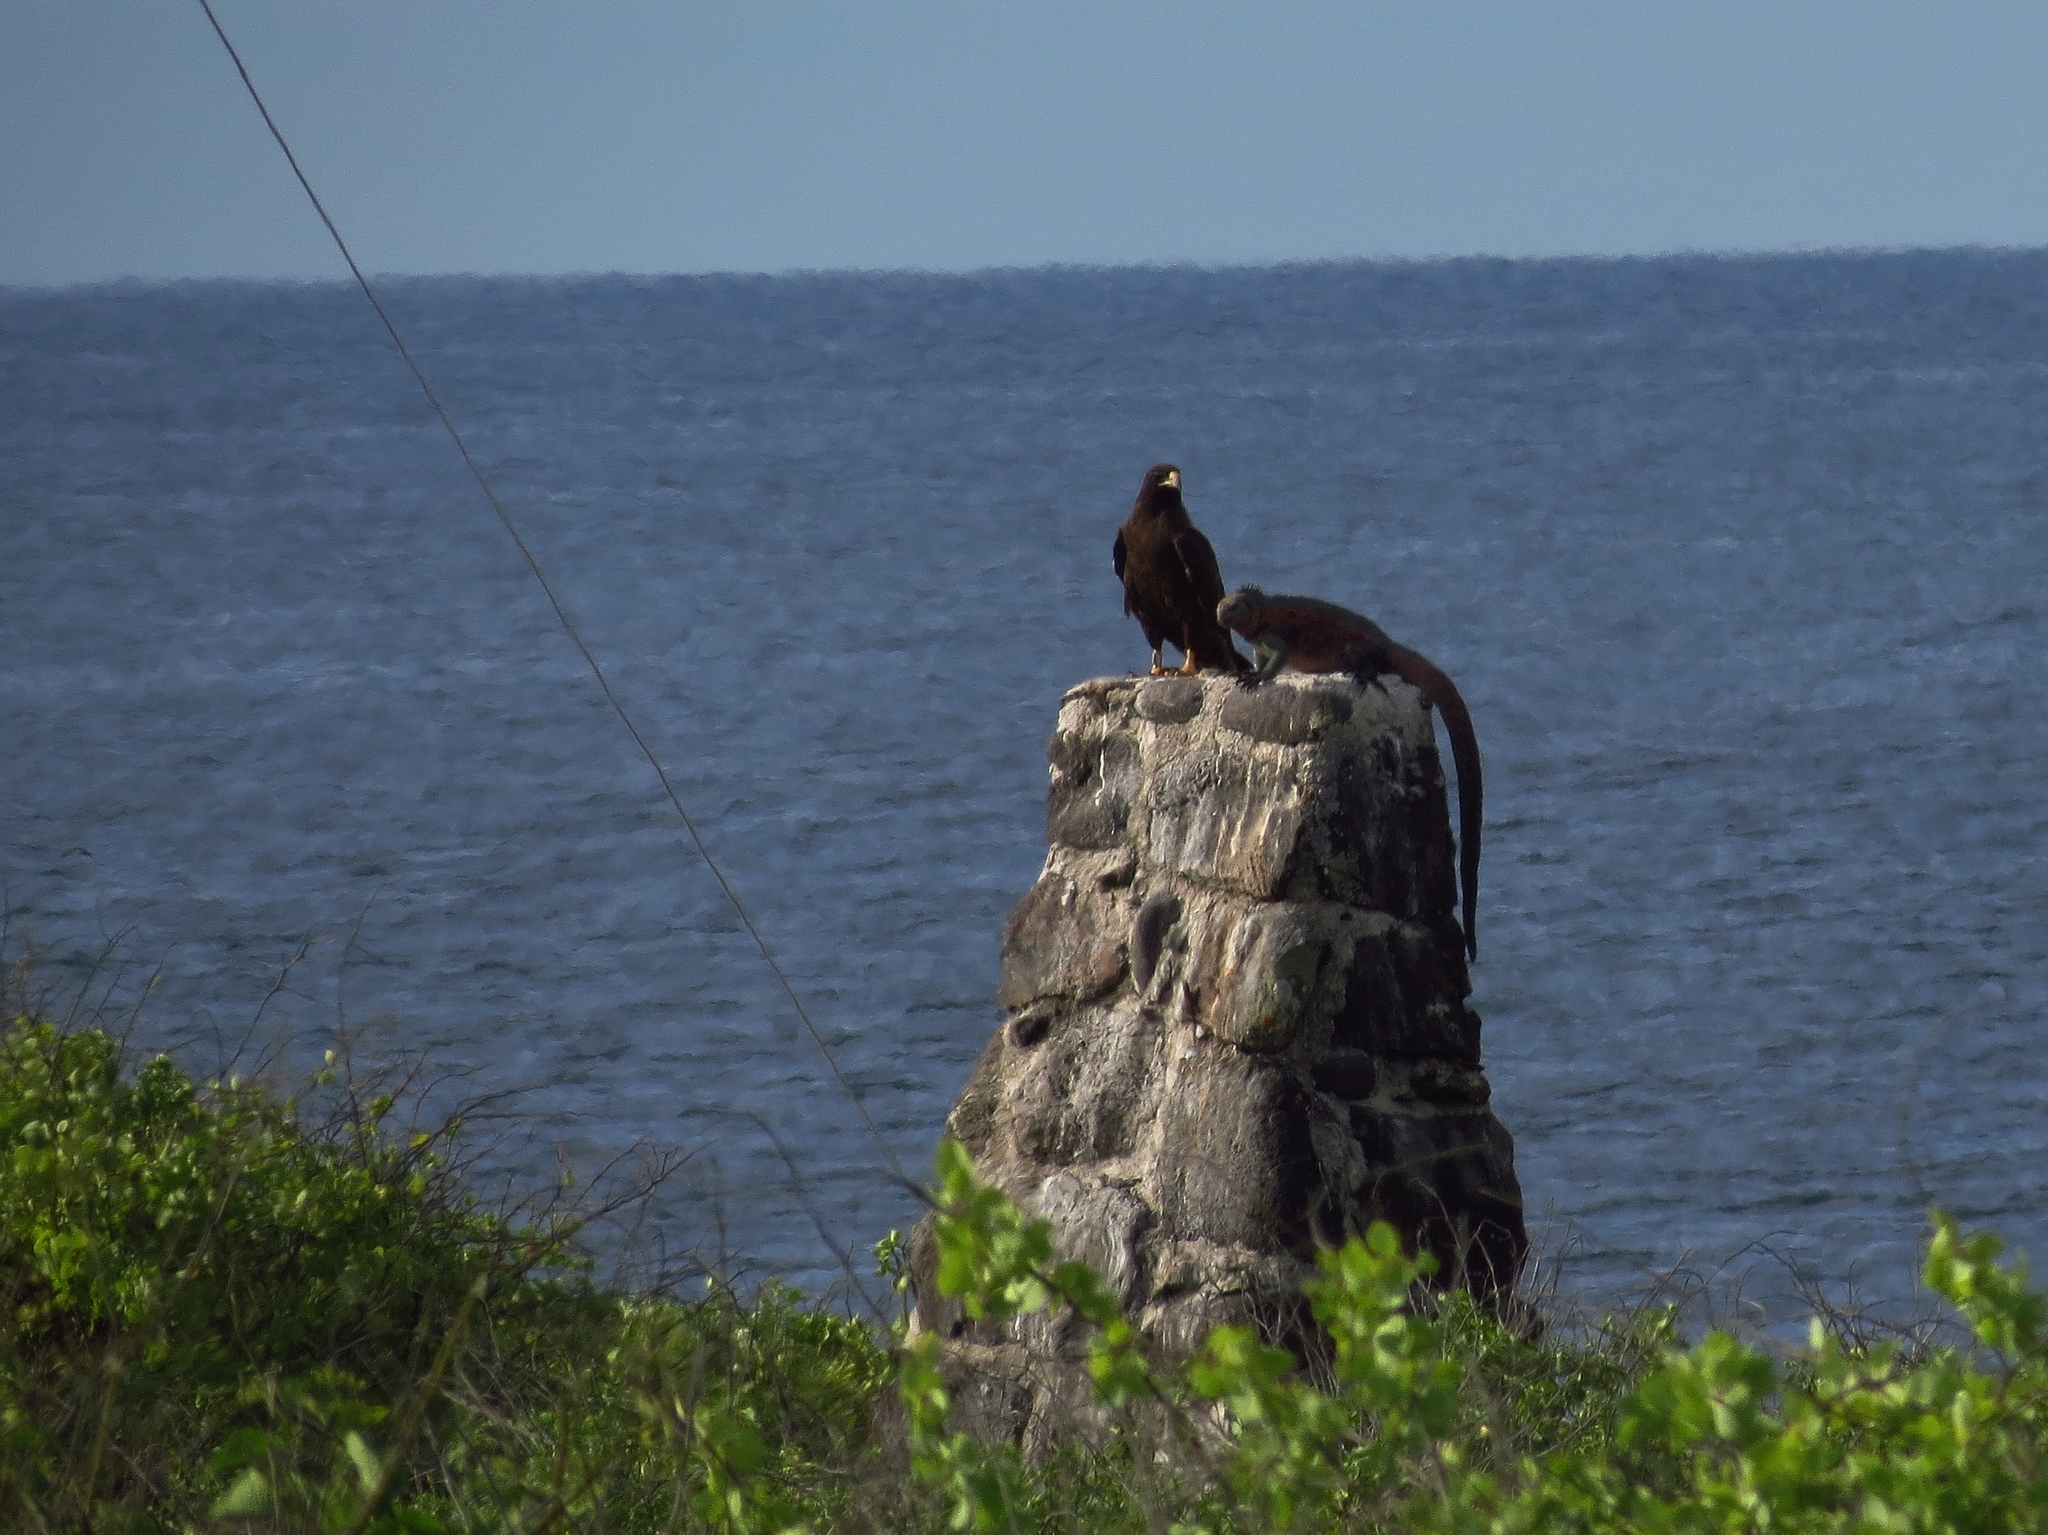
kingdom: Animalia
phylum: Chordata
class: Aves
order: Accipitriformes
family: Accipitridae
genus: Buteo
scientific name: Buteo galapagoensis
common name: Galapagos hawk
